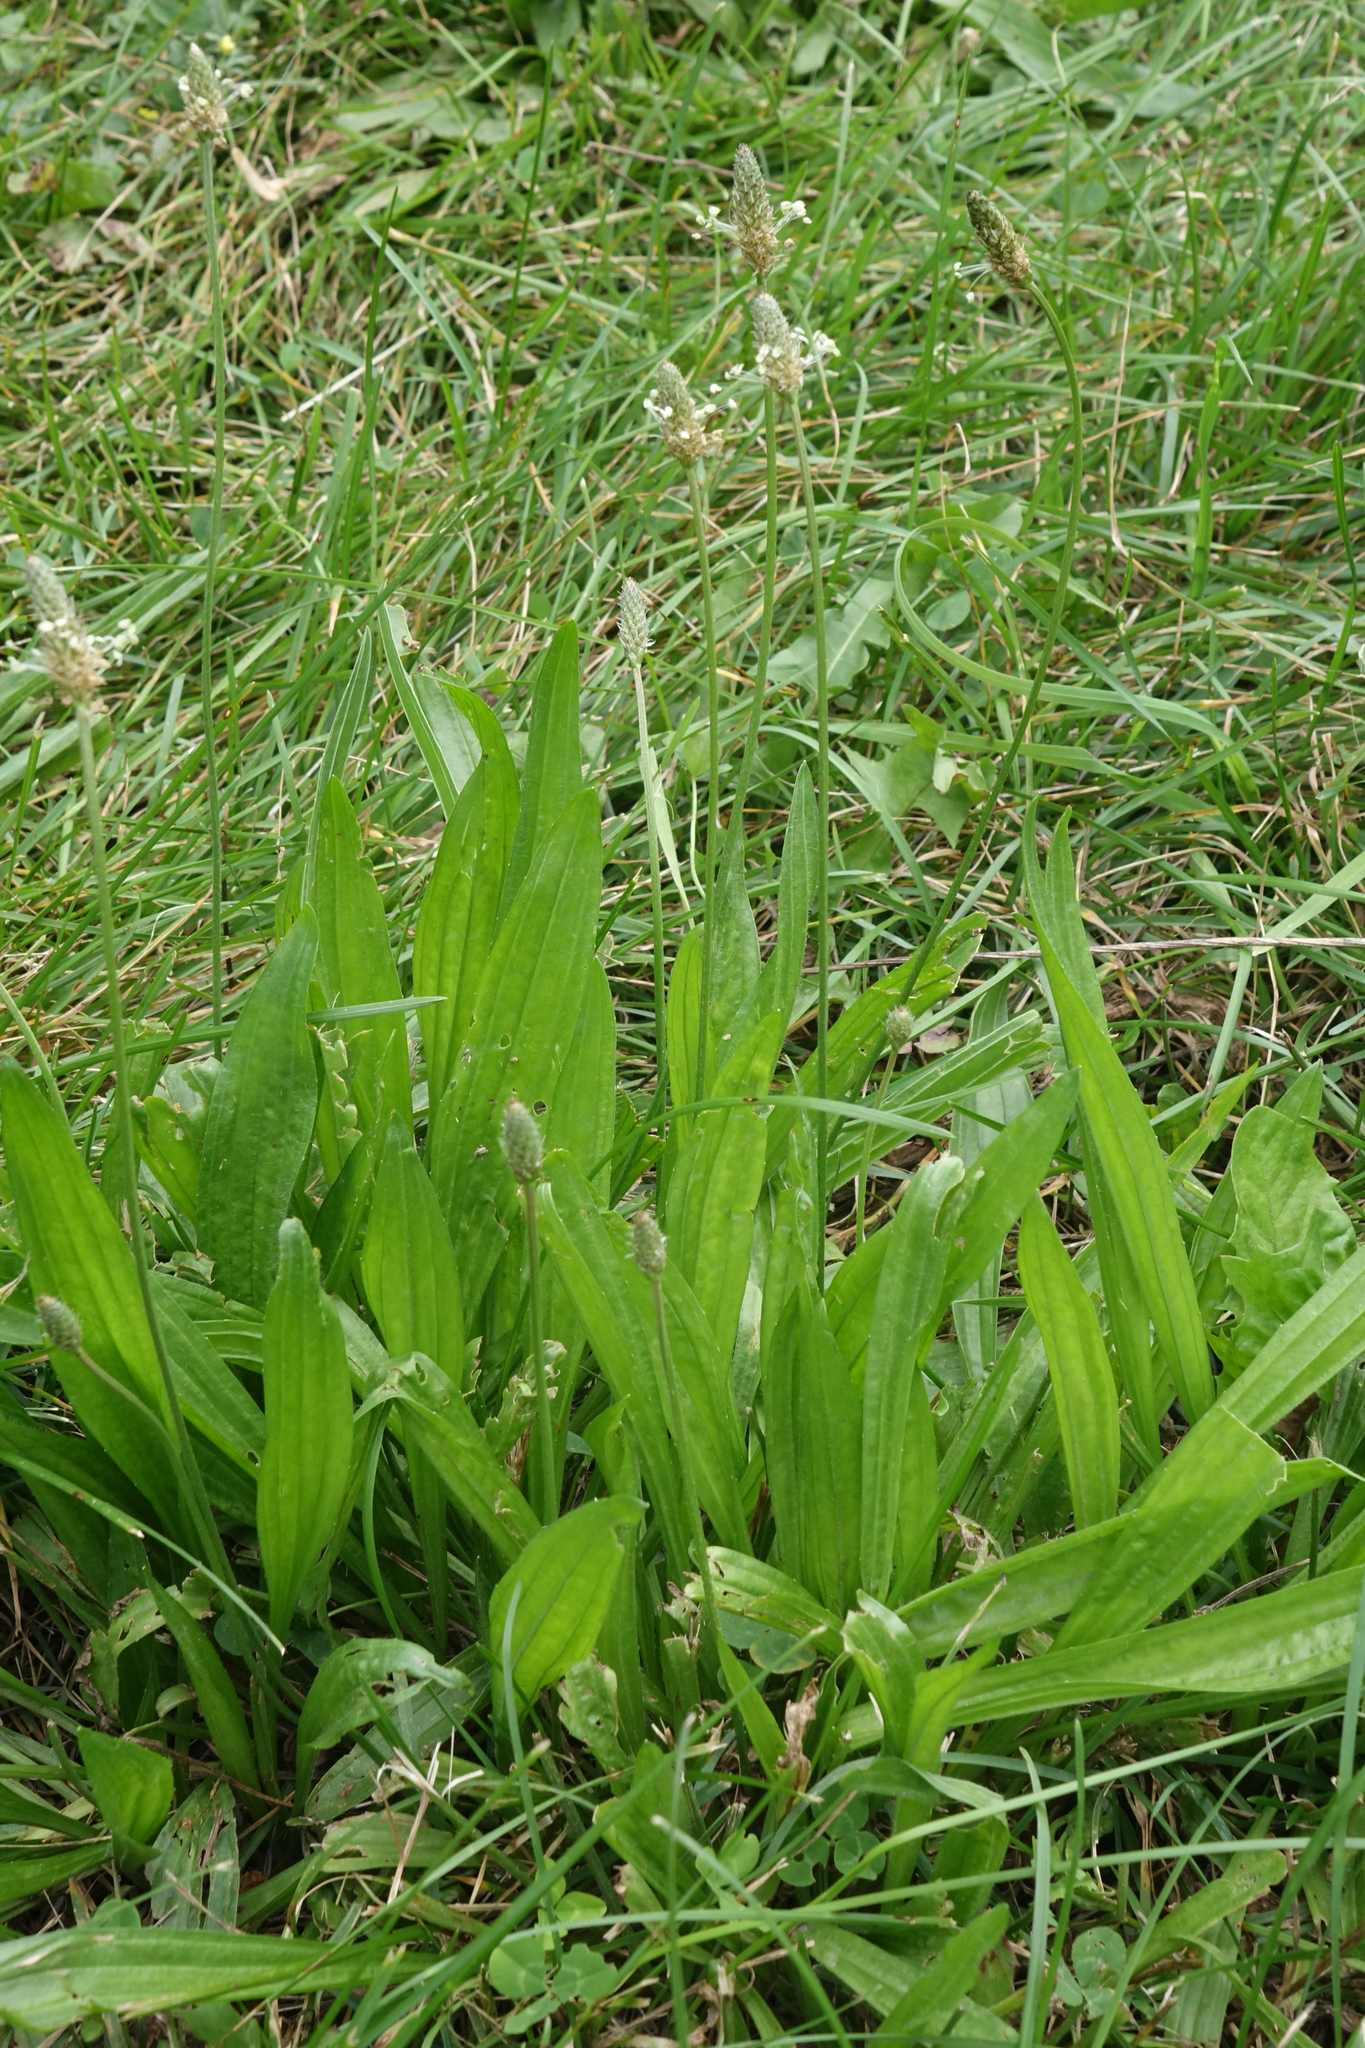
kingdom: Plantae
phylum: Tracheophyta
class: Magnoliopsida
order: Lamiales
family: Plantaginaceae
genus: Plantago
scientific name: Plantago lanceolata
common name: Ribwort plantain
